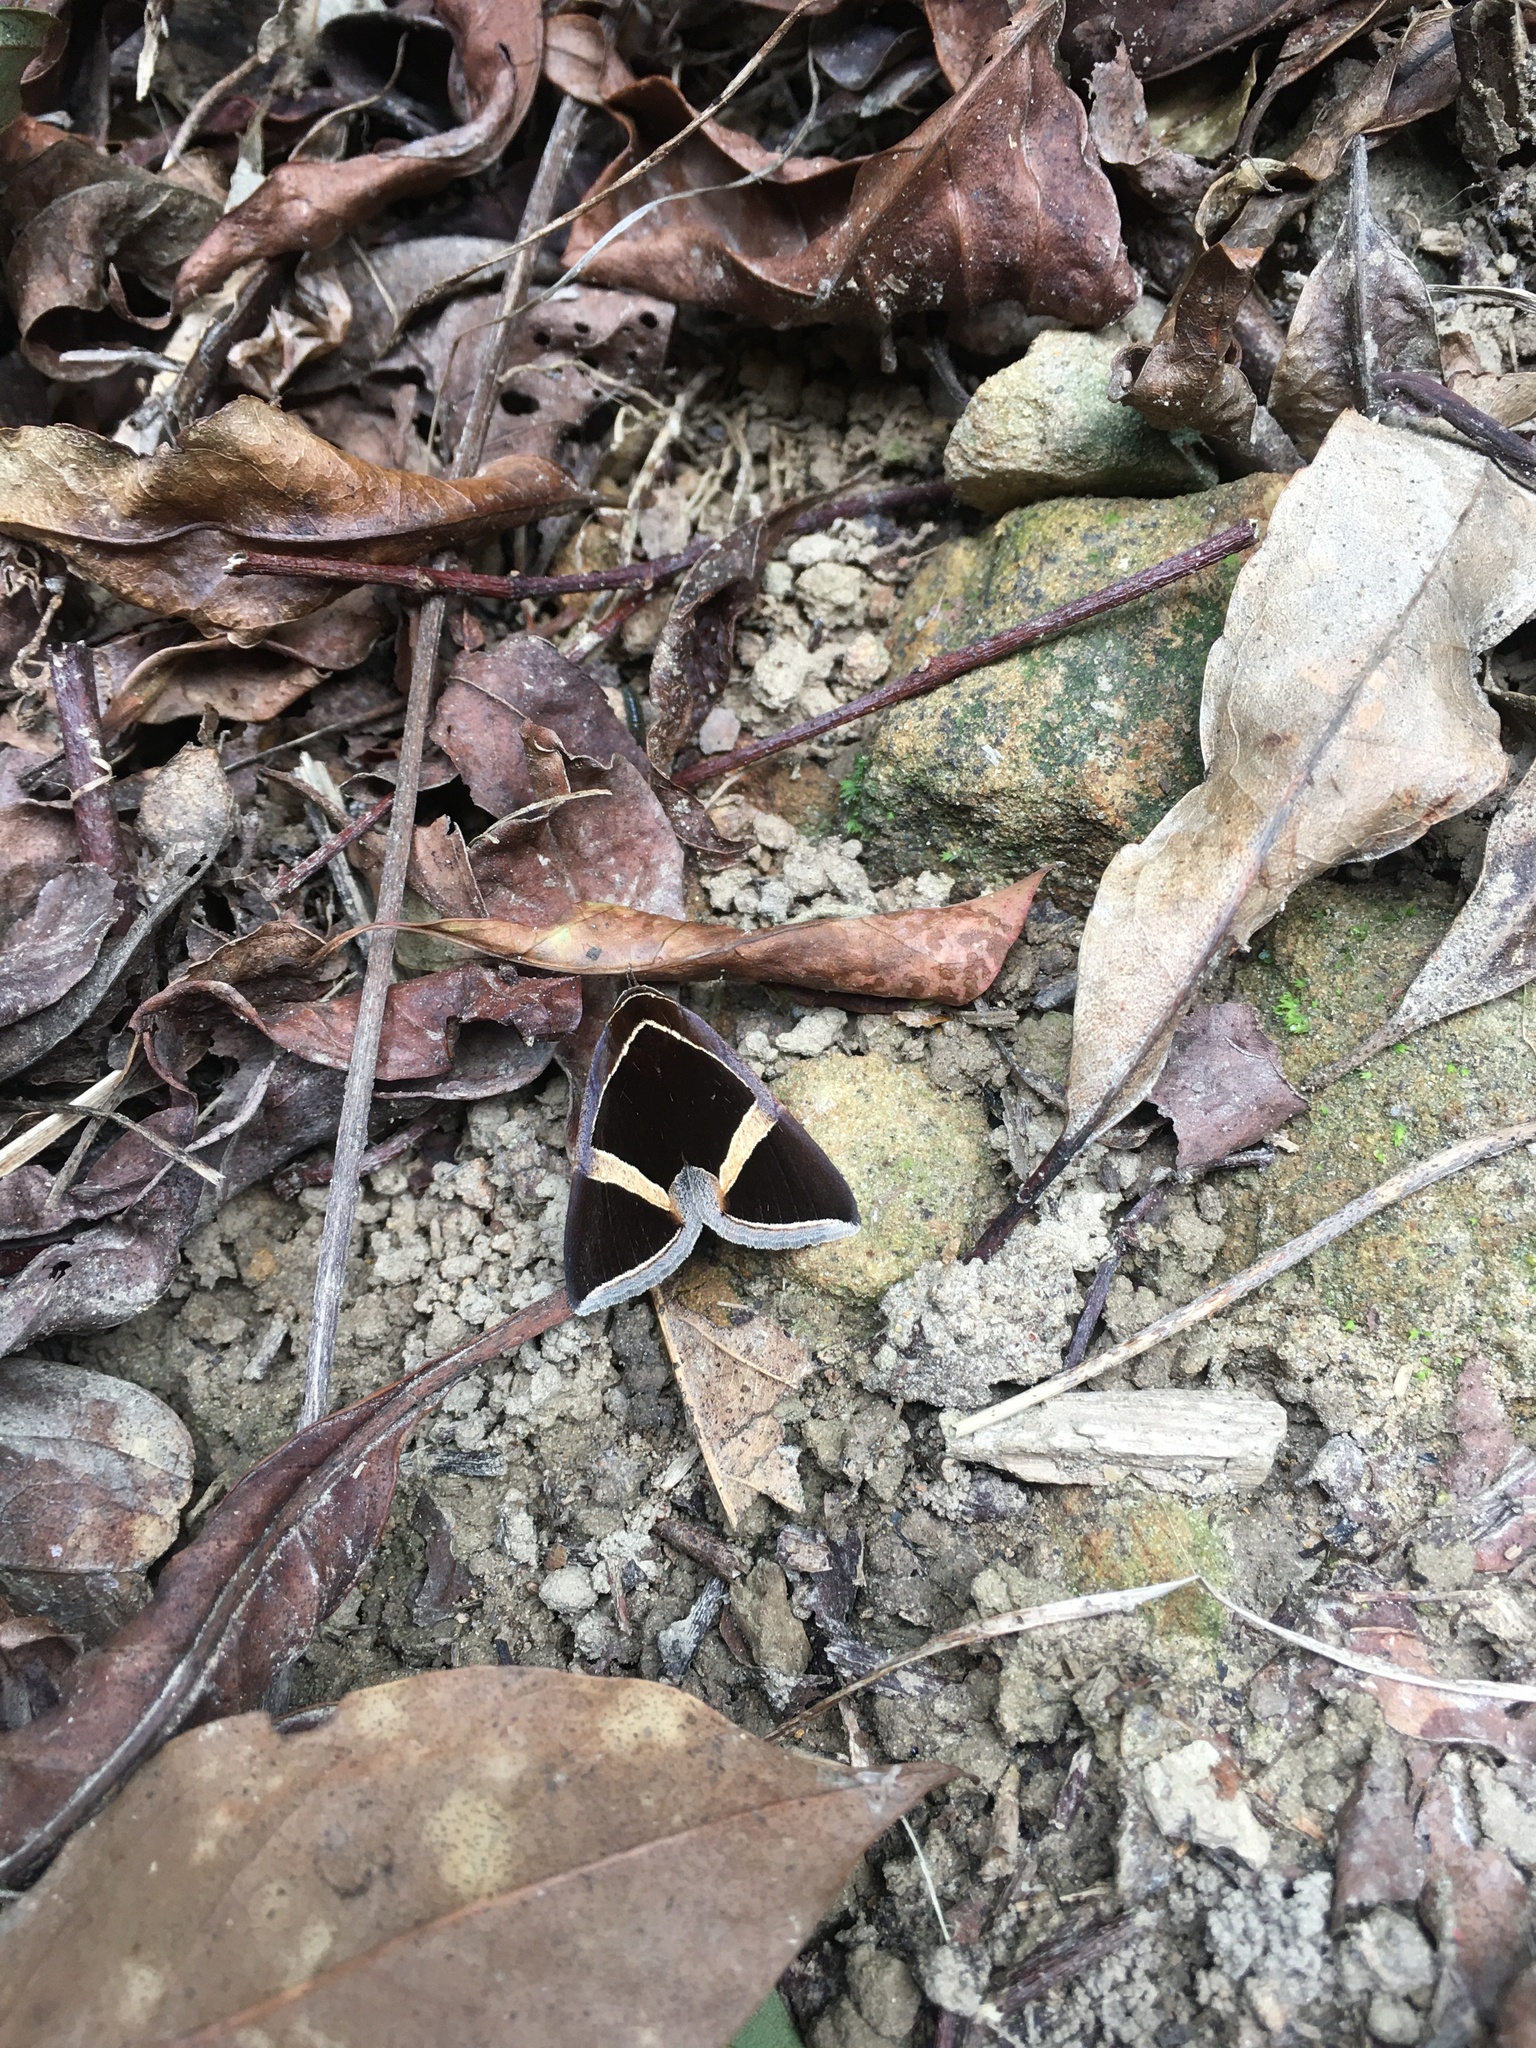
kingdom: Animalia
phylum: Arthropoda
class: Insecta
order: Lepidoptera
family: Erebidae
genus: Fodina
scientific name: Fodina kosemponis
